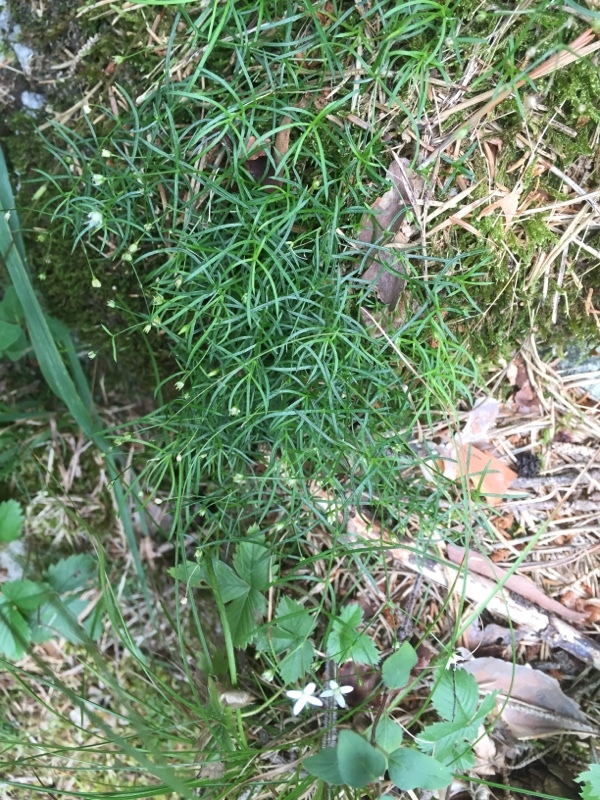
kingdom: Plantae
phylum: Tracheophyta
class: Magnoliopsida
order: Caryophyllales
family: Caryophyllaceae
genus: Moehringia
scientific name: Moehringia muscosa
